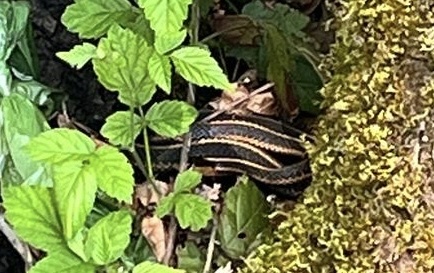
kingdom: Animalia
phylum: Chordata
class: Squamata
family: Colubridae
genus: Thamnophis
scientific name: Thamnophis ordinoides
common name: Northwestern garter snake
